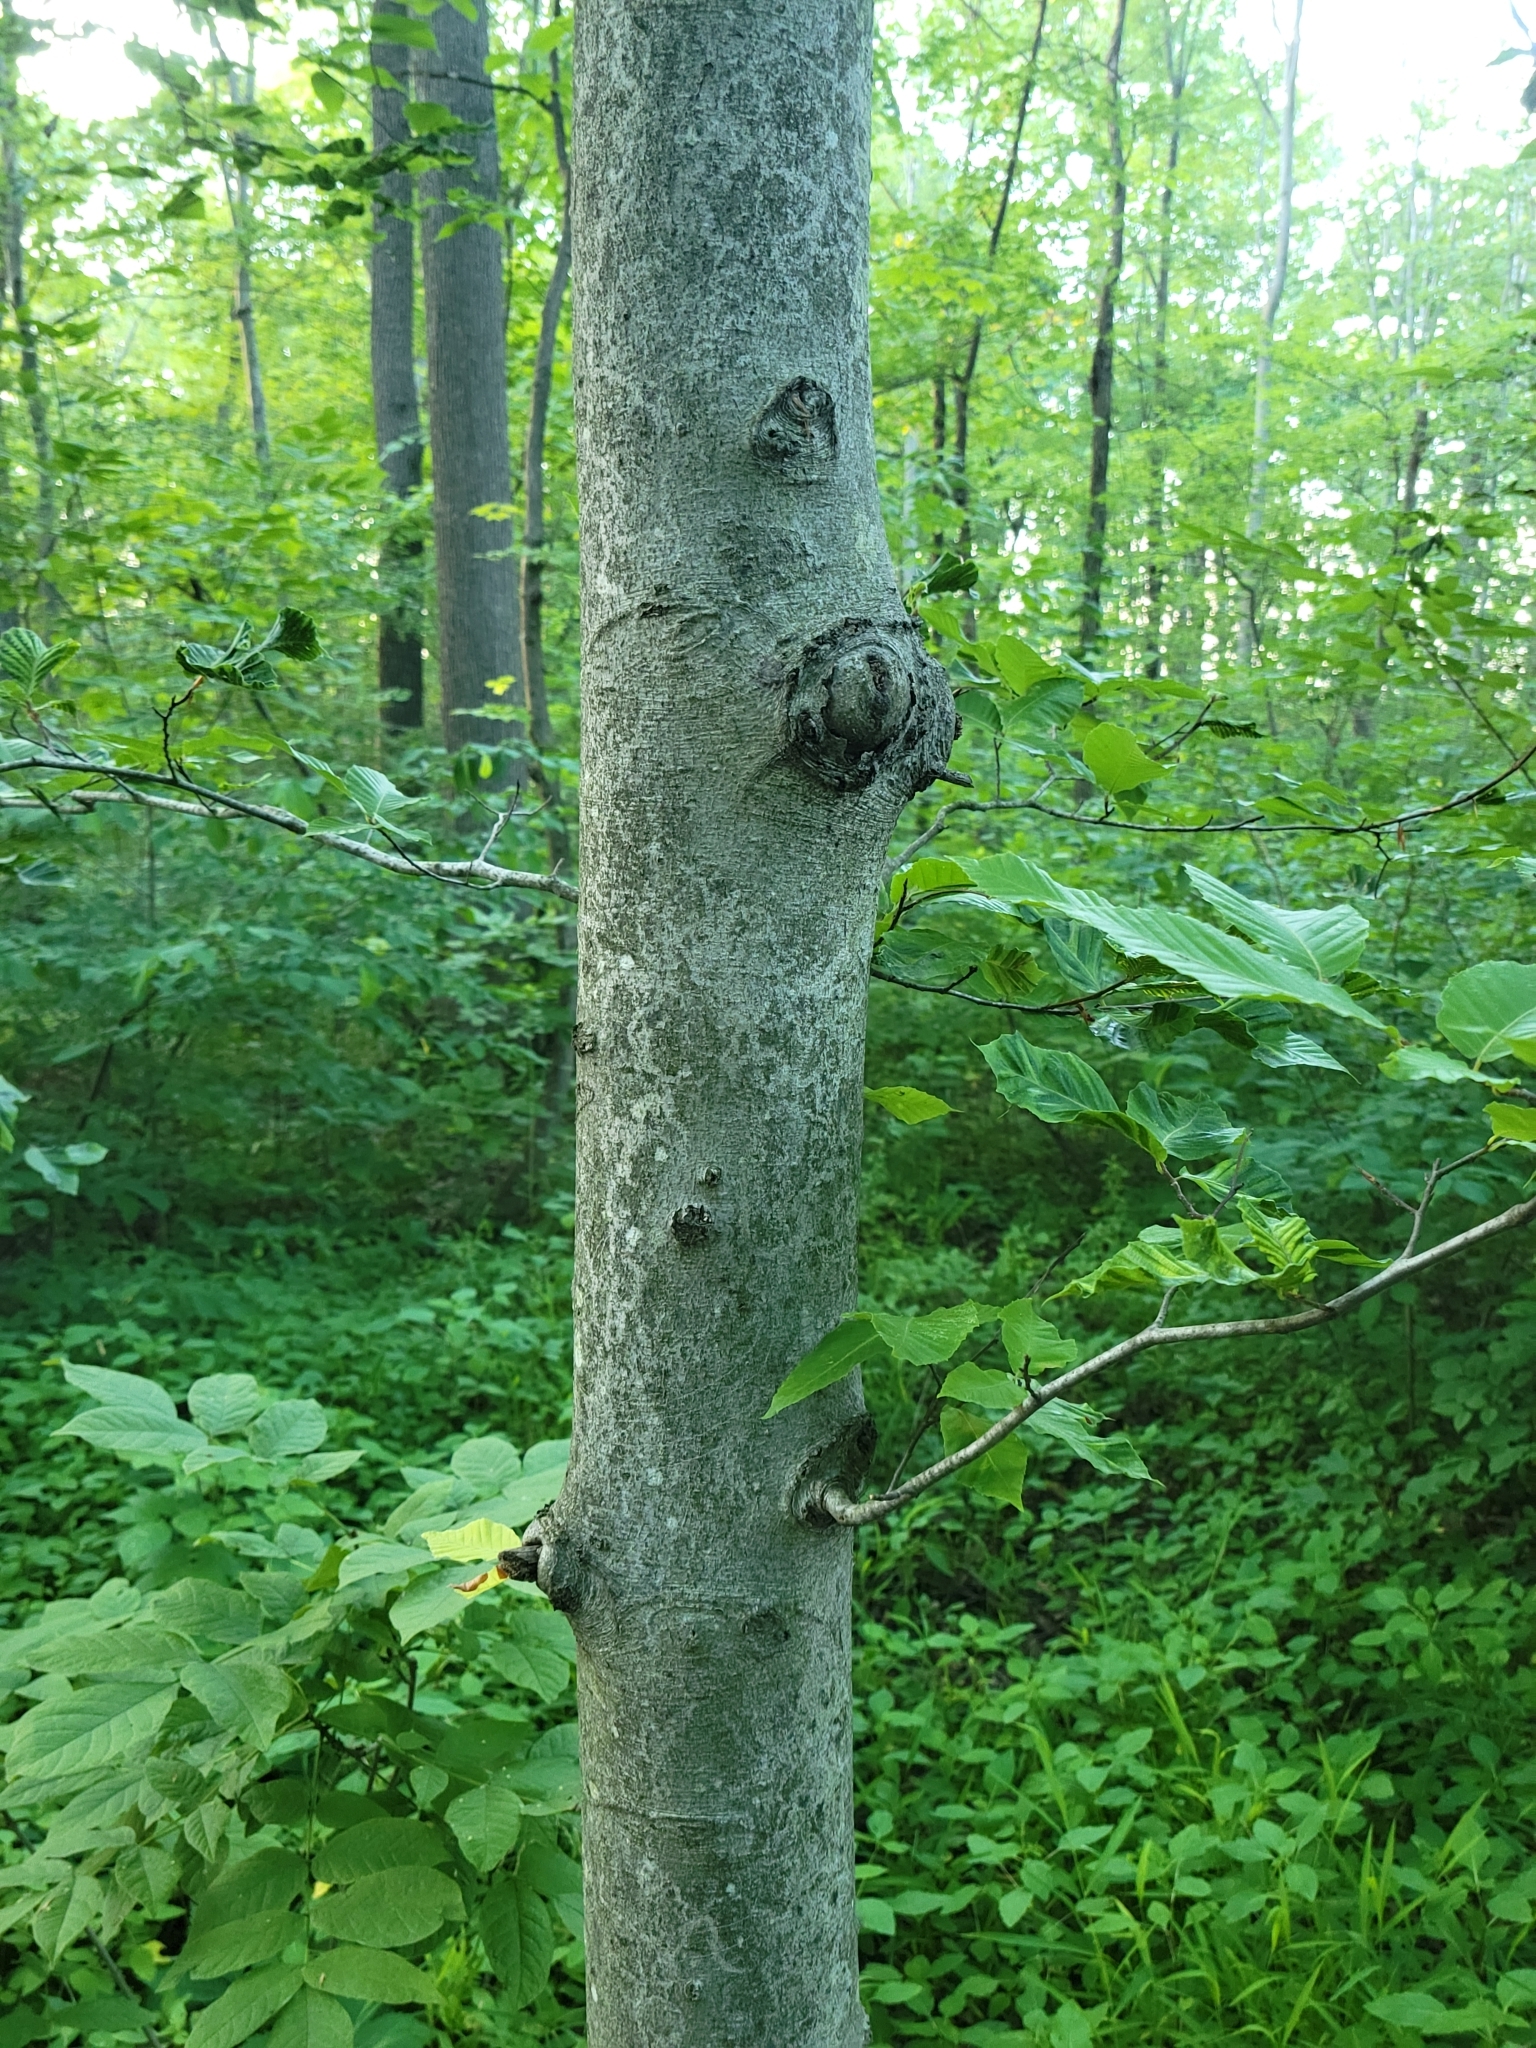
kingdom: Plantae
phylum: Tracheophyta
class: Magnoliopsida
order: Fagales
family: Fagaceae
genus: Fagus
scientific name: Fagus grandifolia
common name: American beech
